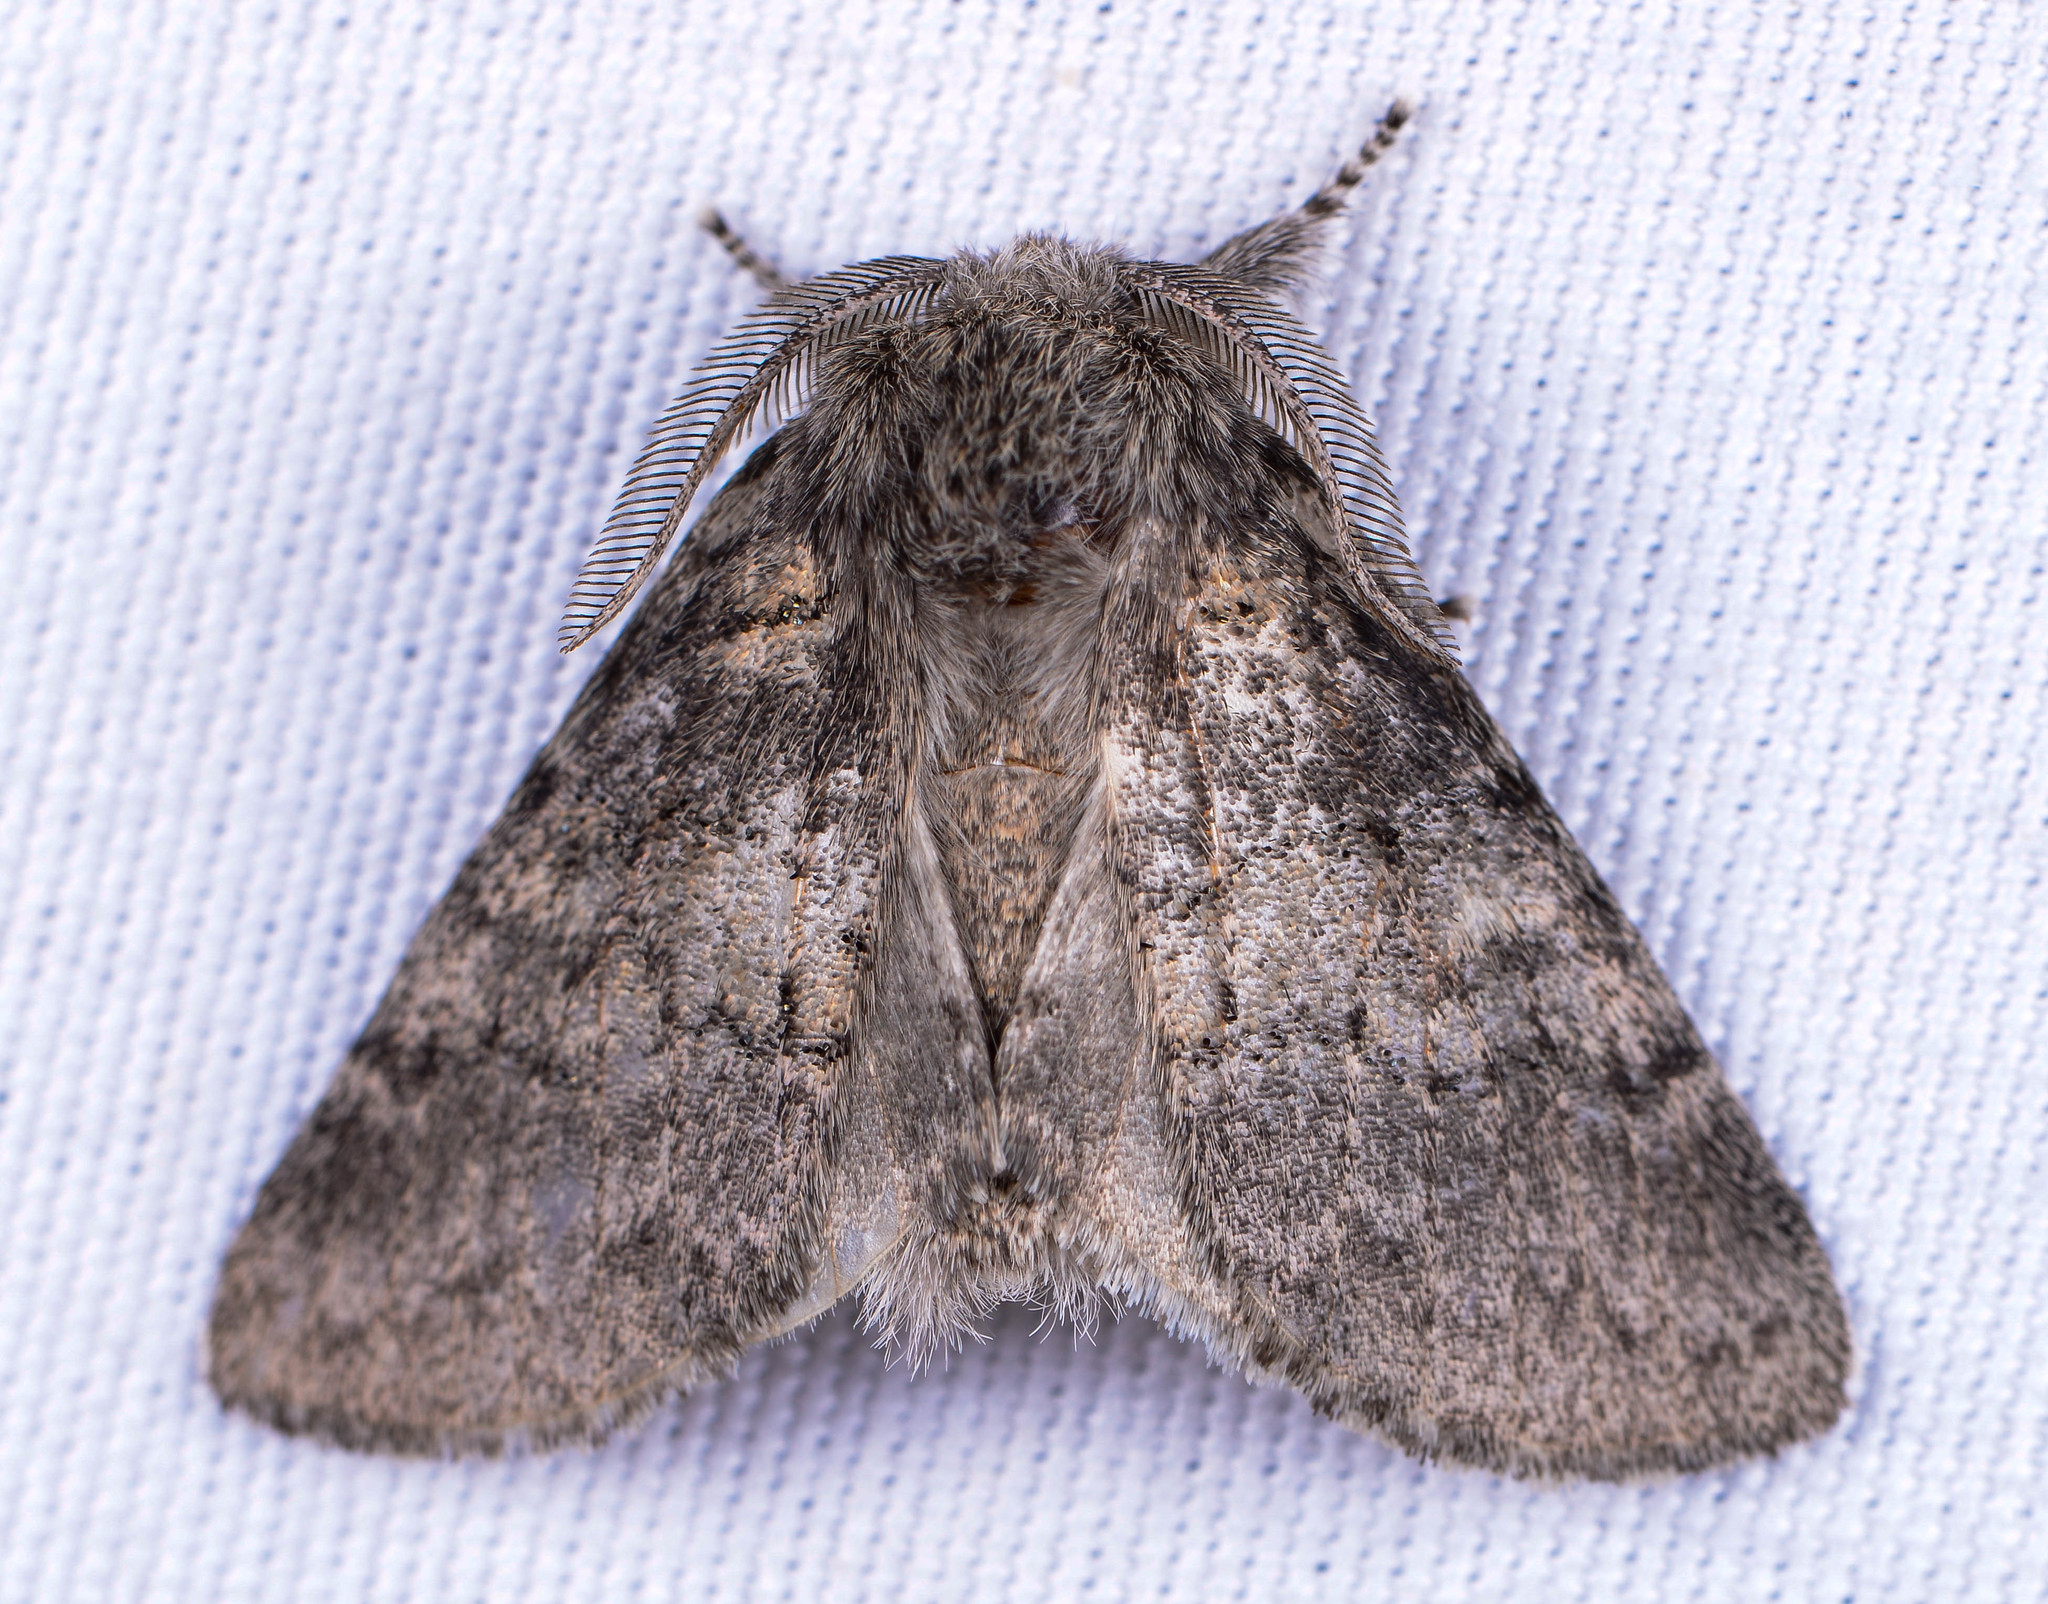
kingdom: Animalia
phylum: Arthropoda
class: Insecta
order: Lepidoptera
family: Notodontidae
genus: Gluphisia
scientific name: Gluphisia septentrionis
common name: Common gluphisia
